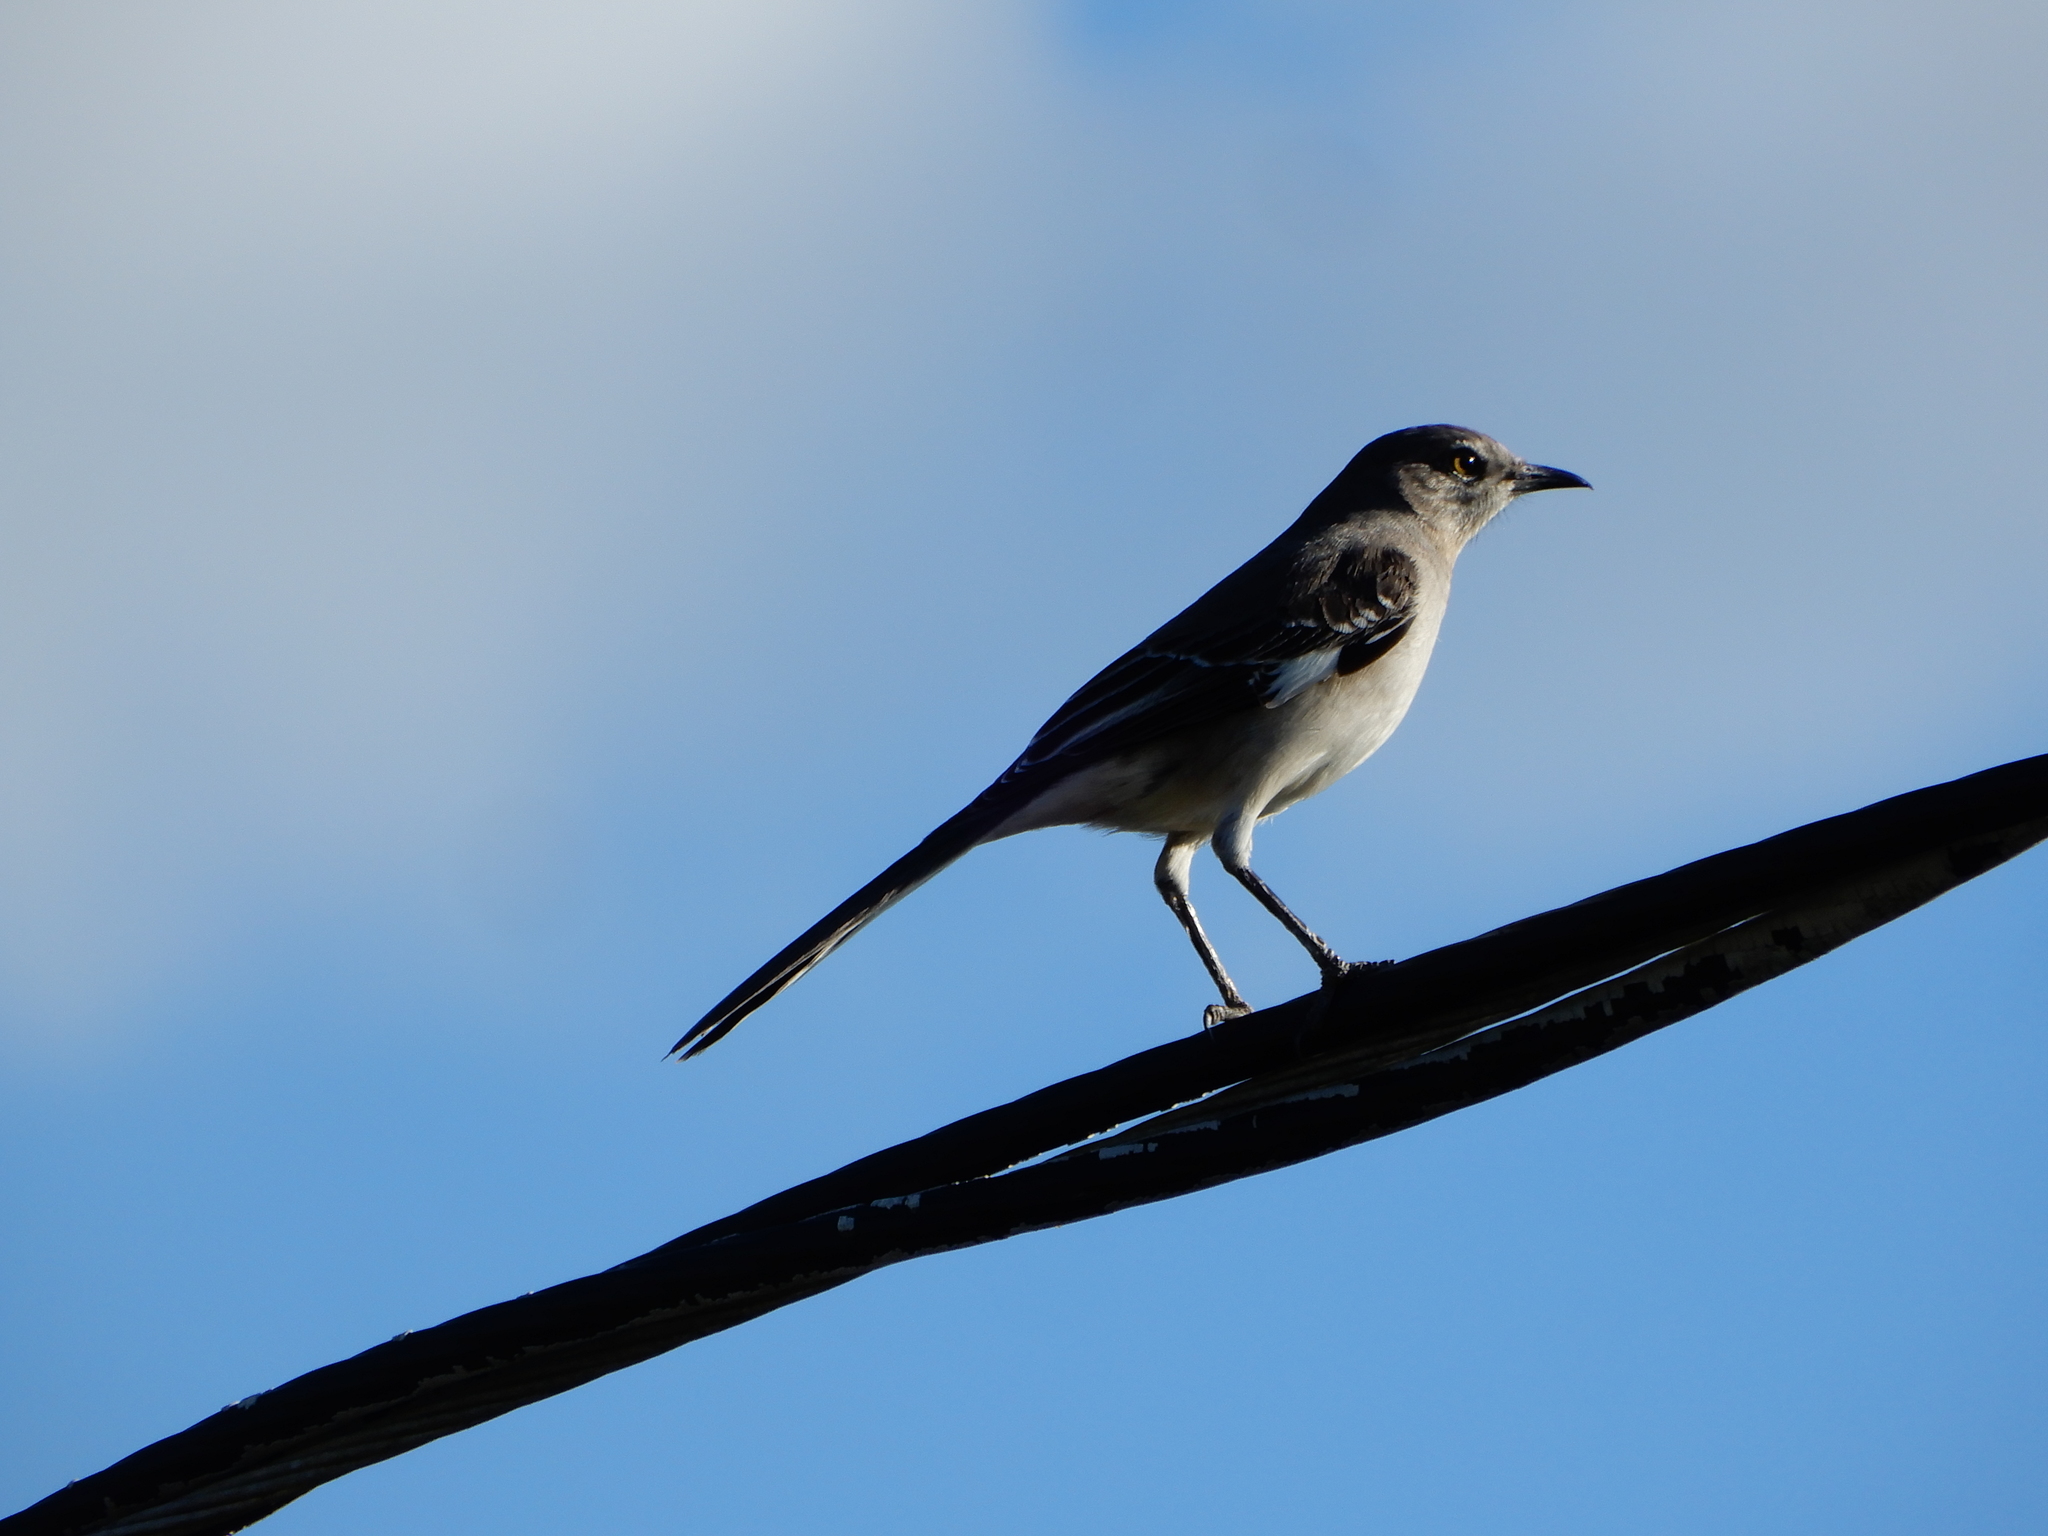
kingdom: Animalia
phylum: Chordata
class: Aves
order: Passeriformes
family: Mimidae
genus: Mimus
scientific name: Mimus polyglottos
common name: Northern mockingbird
